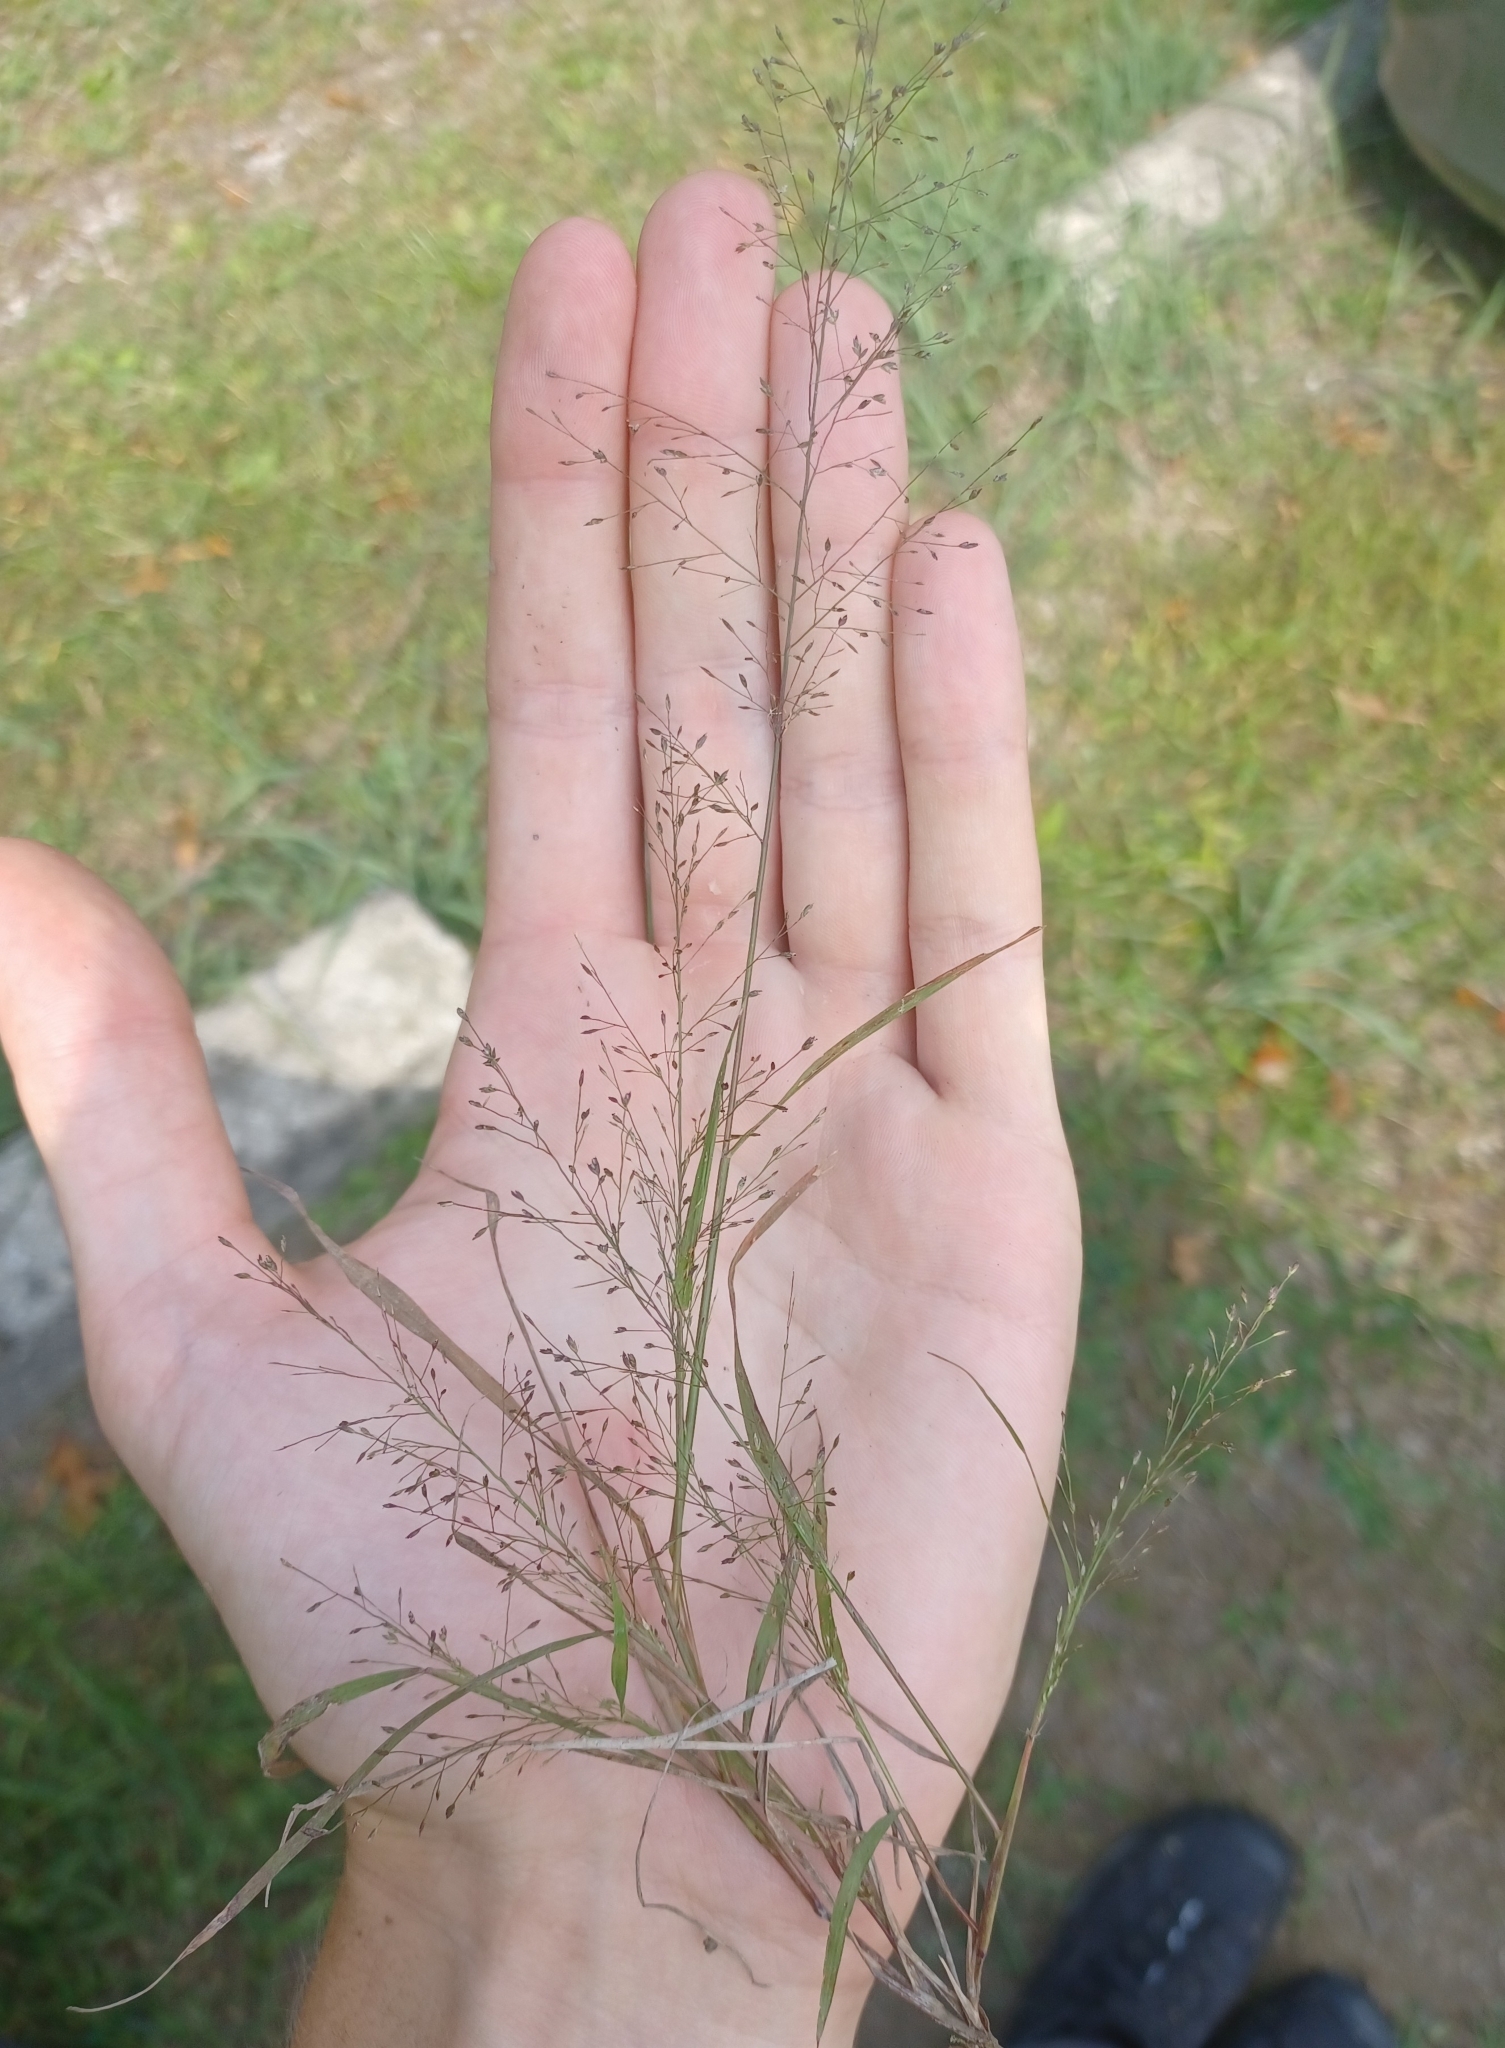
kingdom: Plantae
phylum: Tracheophyta
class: Liliopsida
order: Poales
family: Poaceae
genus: Eragrostis
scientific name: Eragrostis frankii
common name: Frank's lovegrass
